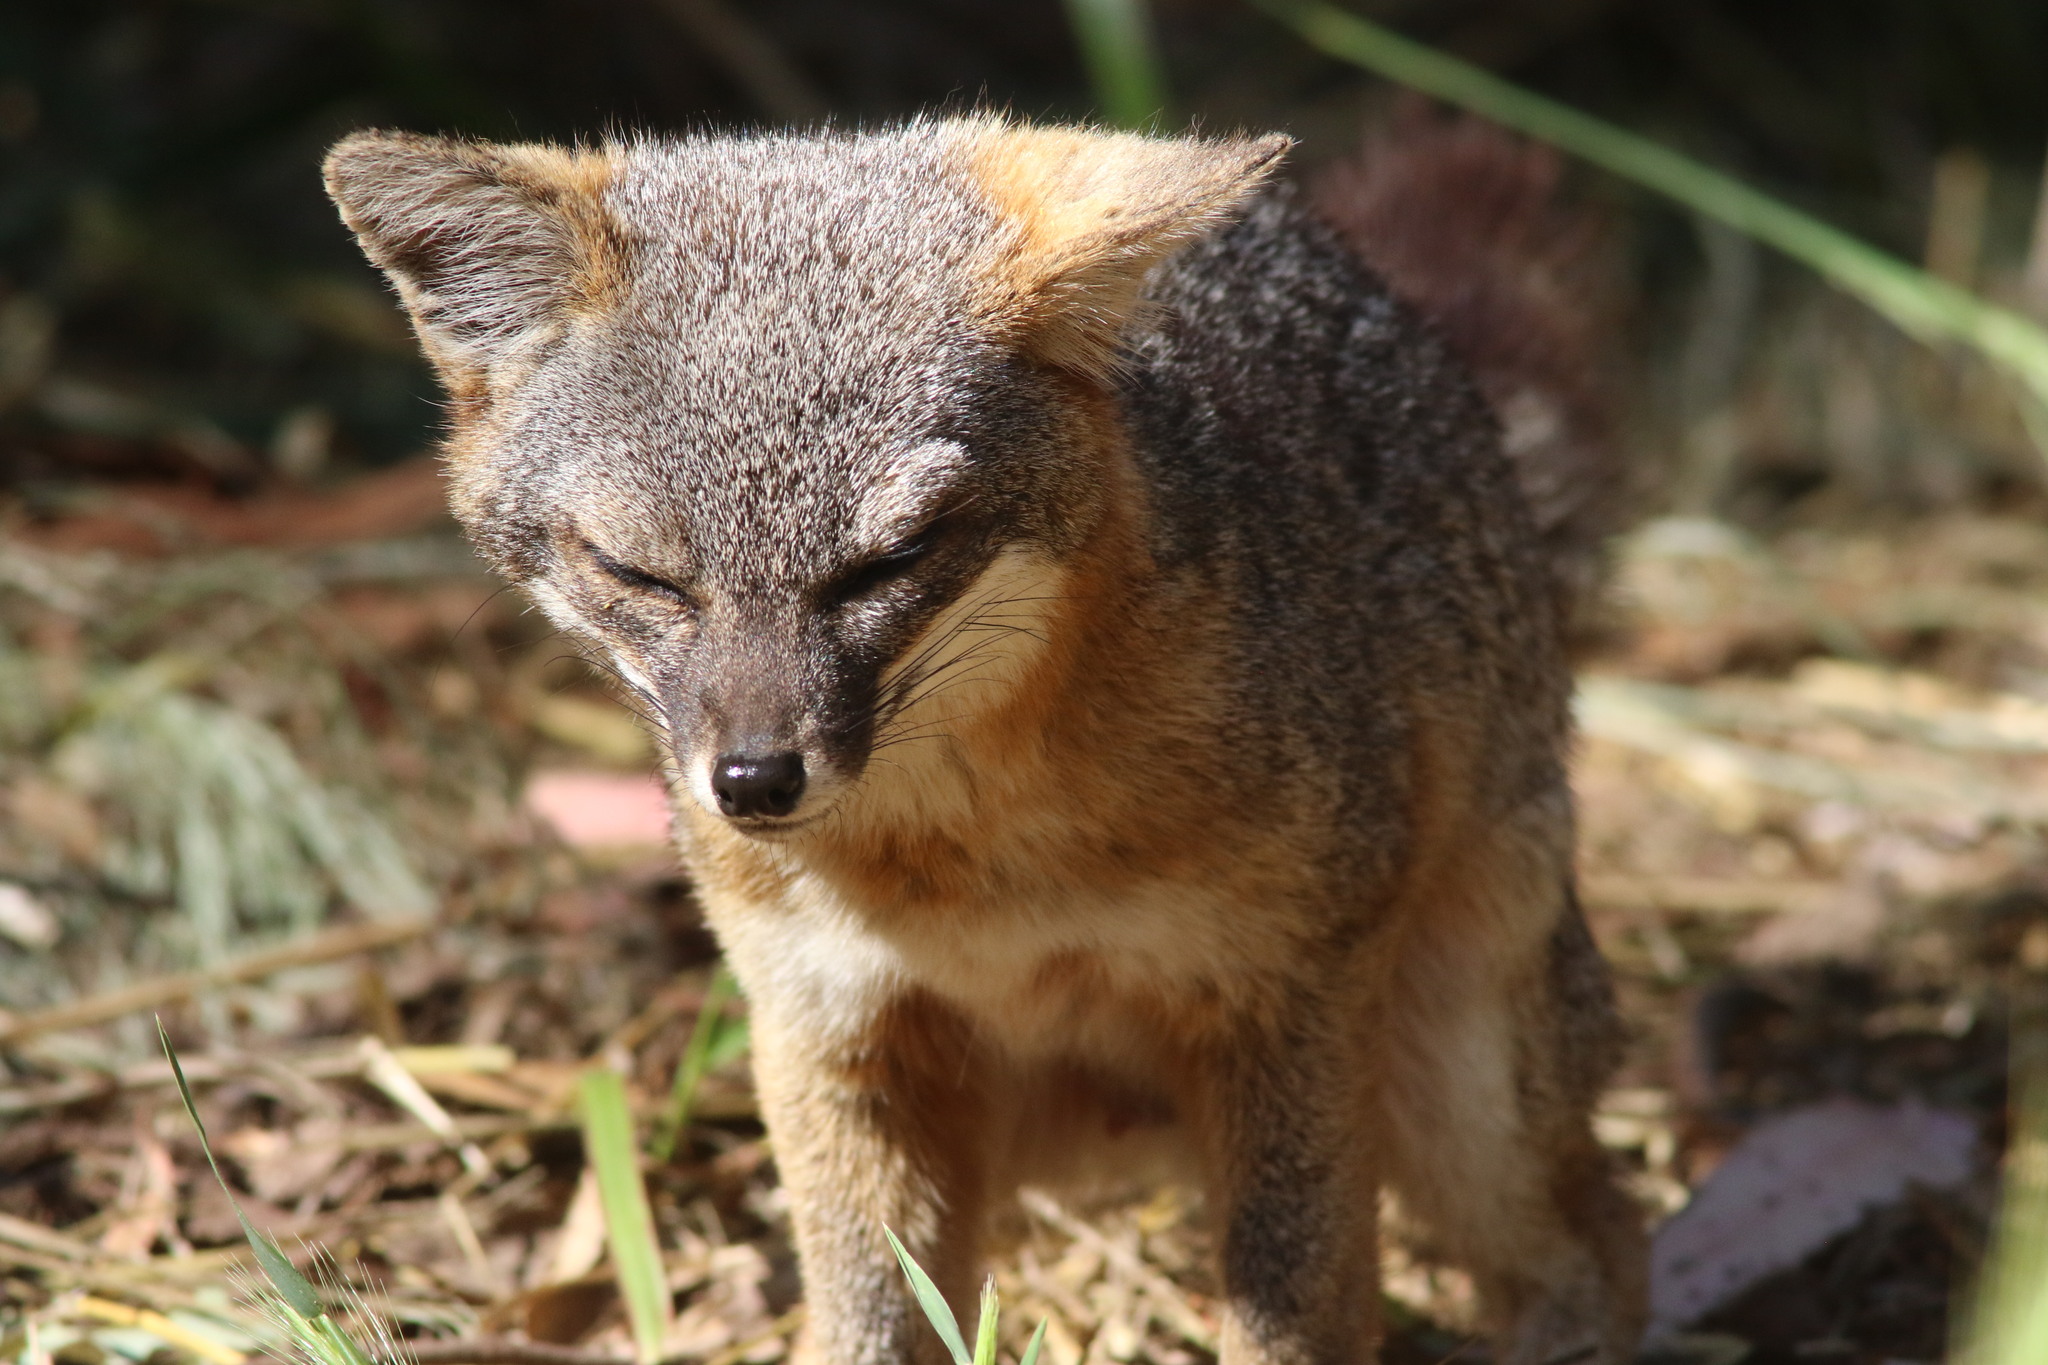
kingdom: Animalia
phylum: Chordata
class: Mammalia
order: Carnivora
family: Canidae
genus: Urocyon
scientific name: Urocyon littoralis
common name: Island gray fox
